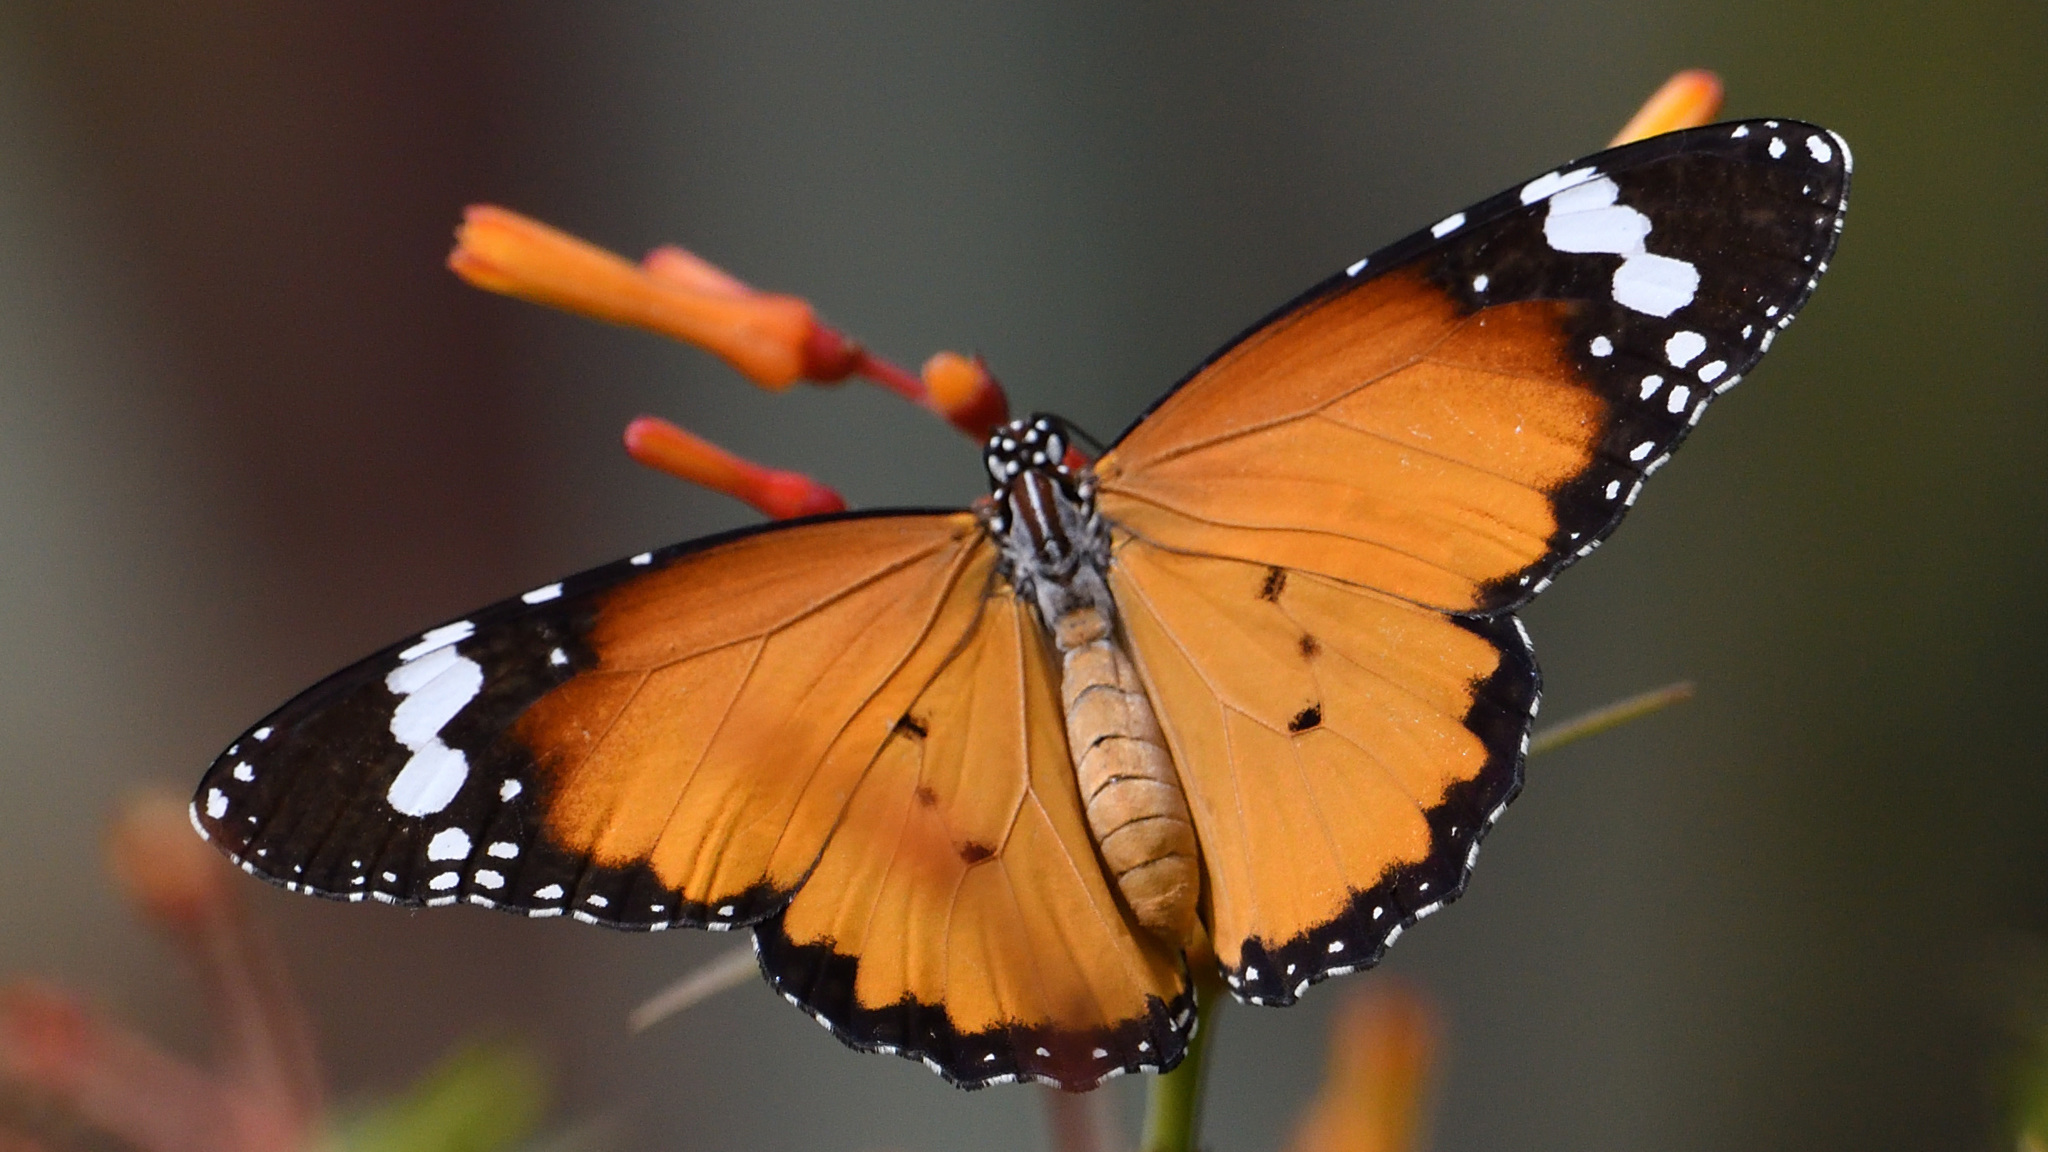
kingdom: Animalia
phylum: Arthropoda
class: Insecta
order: Lepidoptera
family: Nymphalidae
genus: Danaus
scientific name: Danaus chrysippus
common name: Plain tiger
